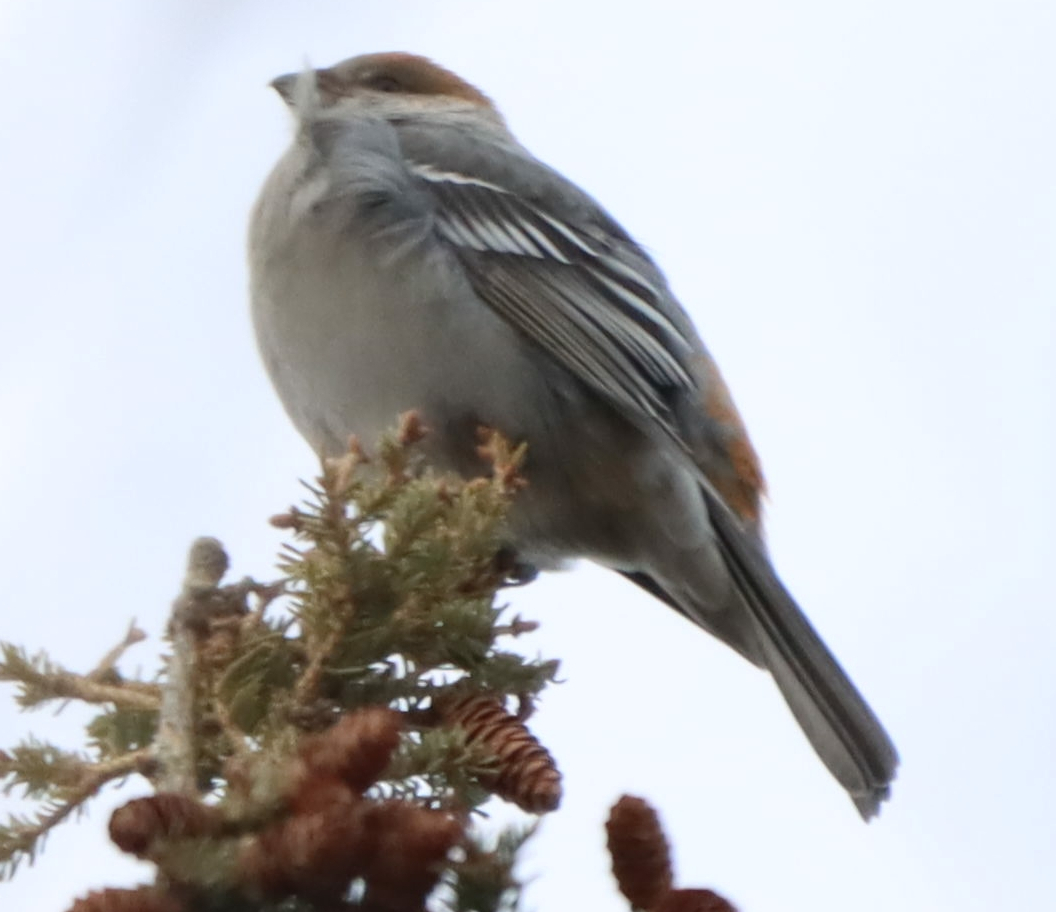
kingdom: Animalia
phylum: Chordata
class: Aves
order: Passeriformes
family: Fringillidae
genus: Pinicola
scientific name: Pinicola enucleator
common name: Pine grosbeak
